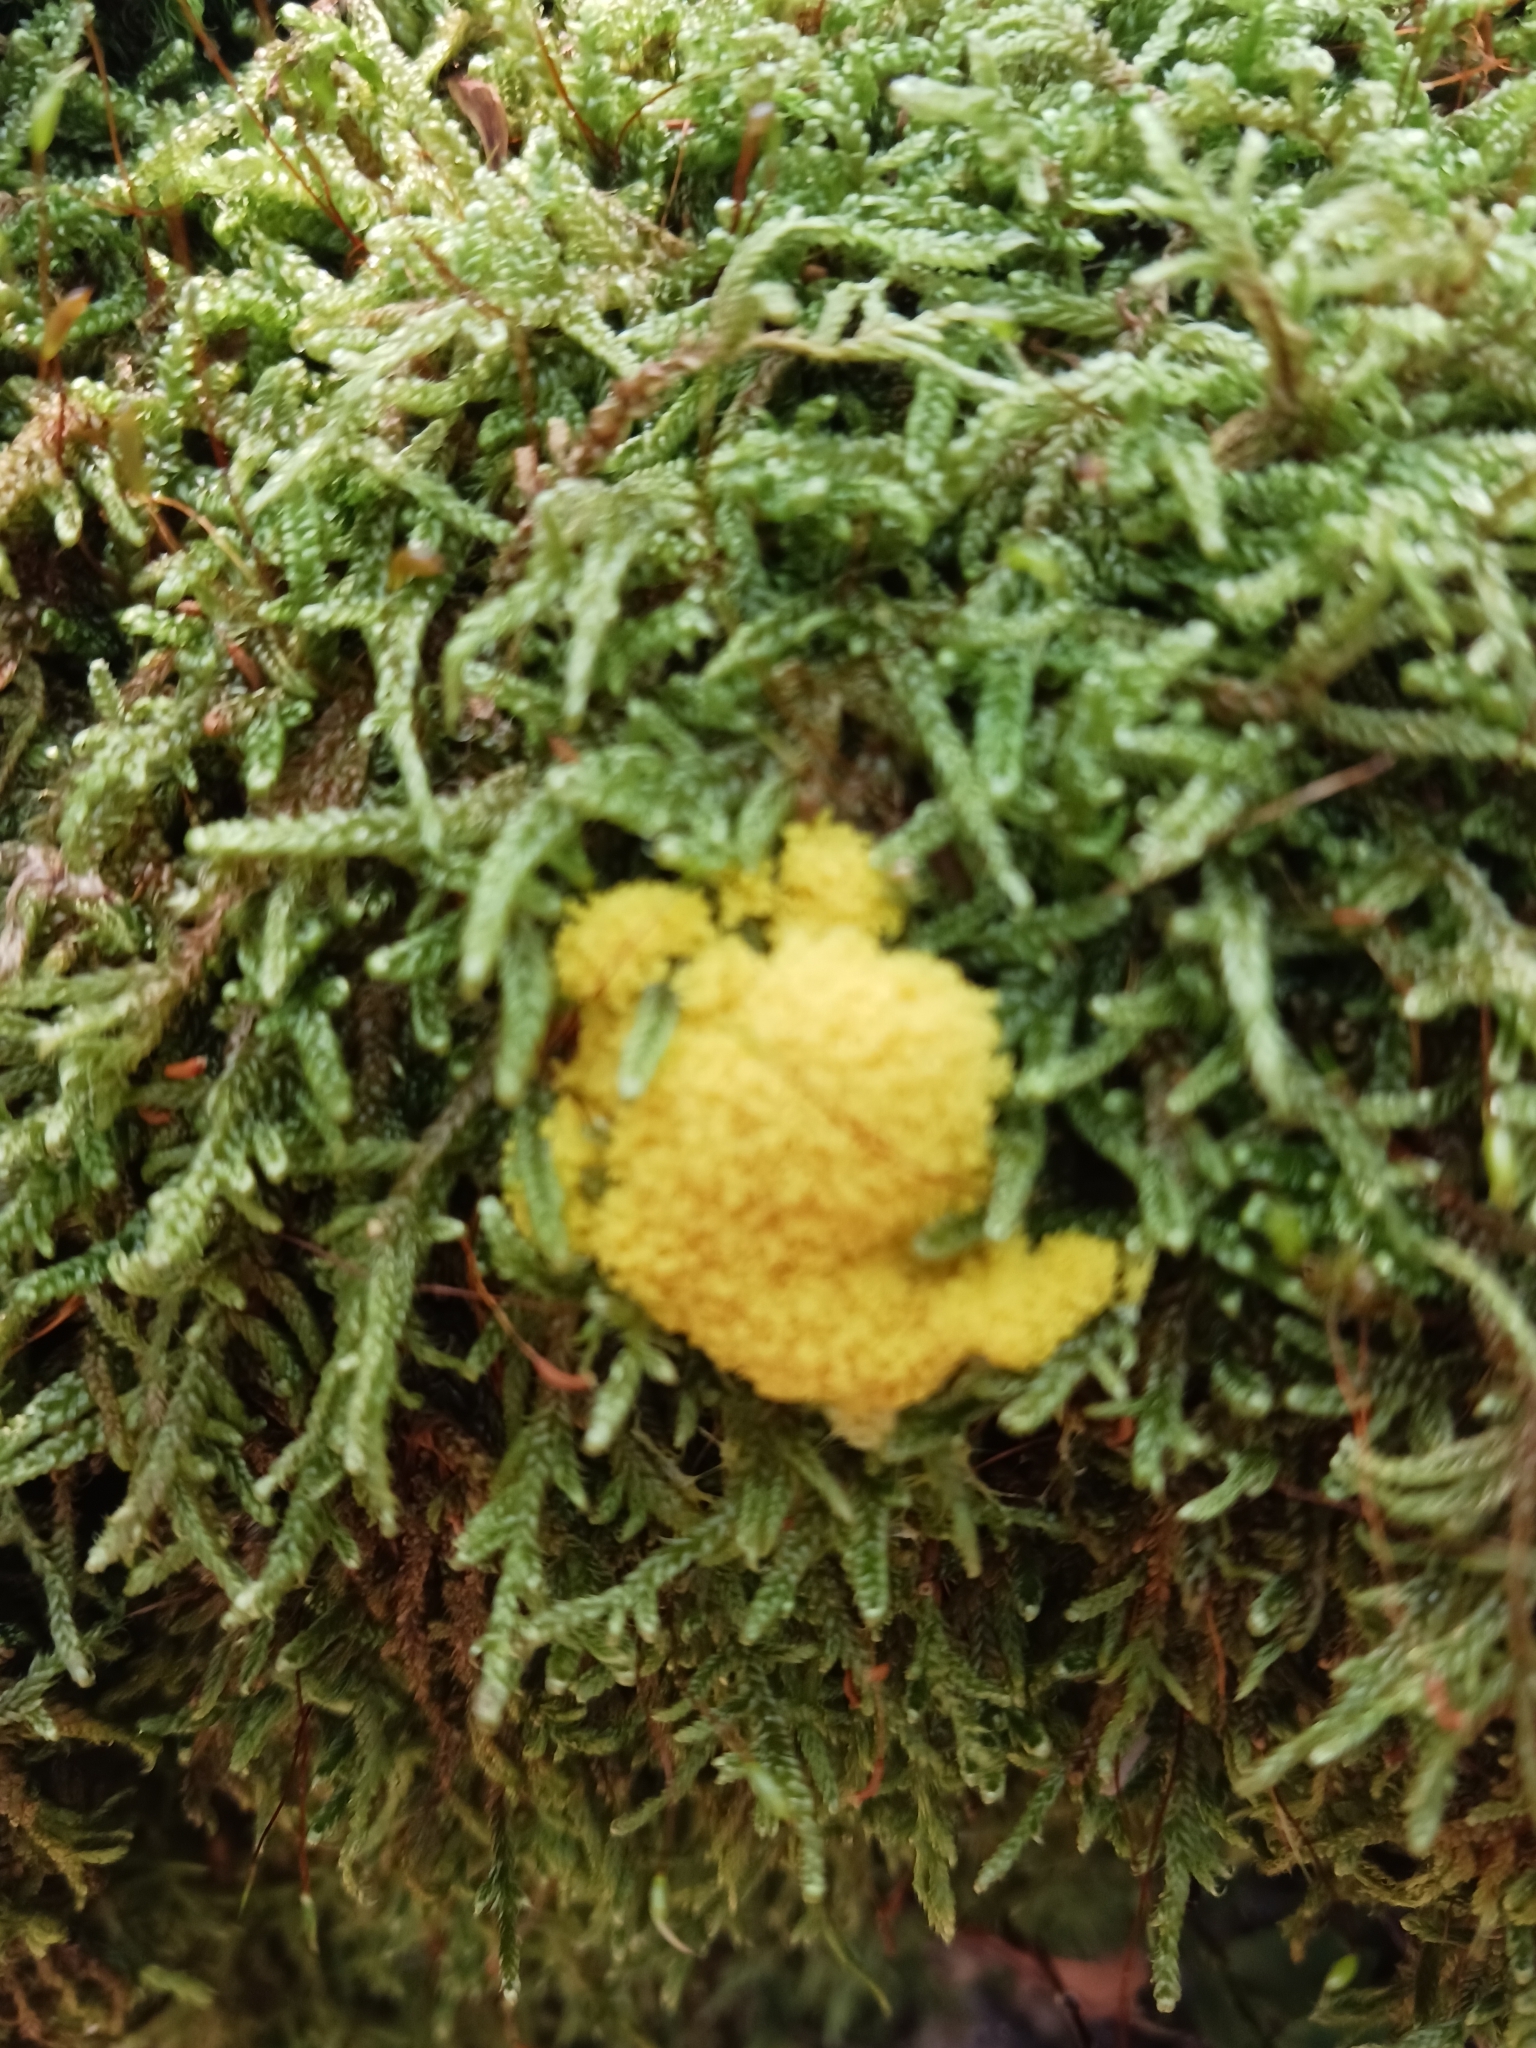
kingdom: Protozoa
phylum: Mycetozoa
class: Myxomycetes
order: Physarales
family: Physaraceae
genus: Fuligo
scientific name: Fuligo septica
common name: Dog vomit slime mold
